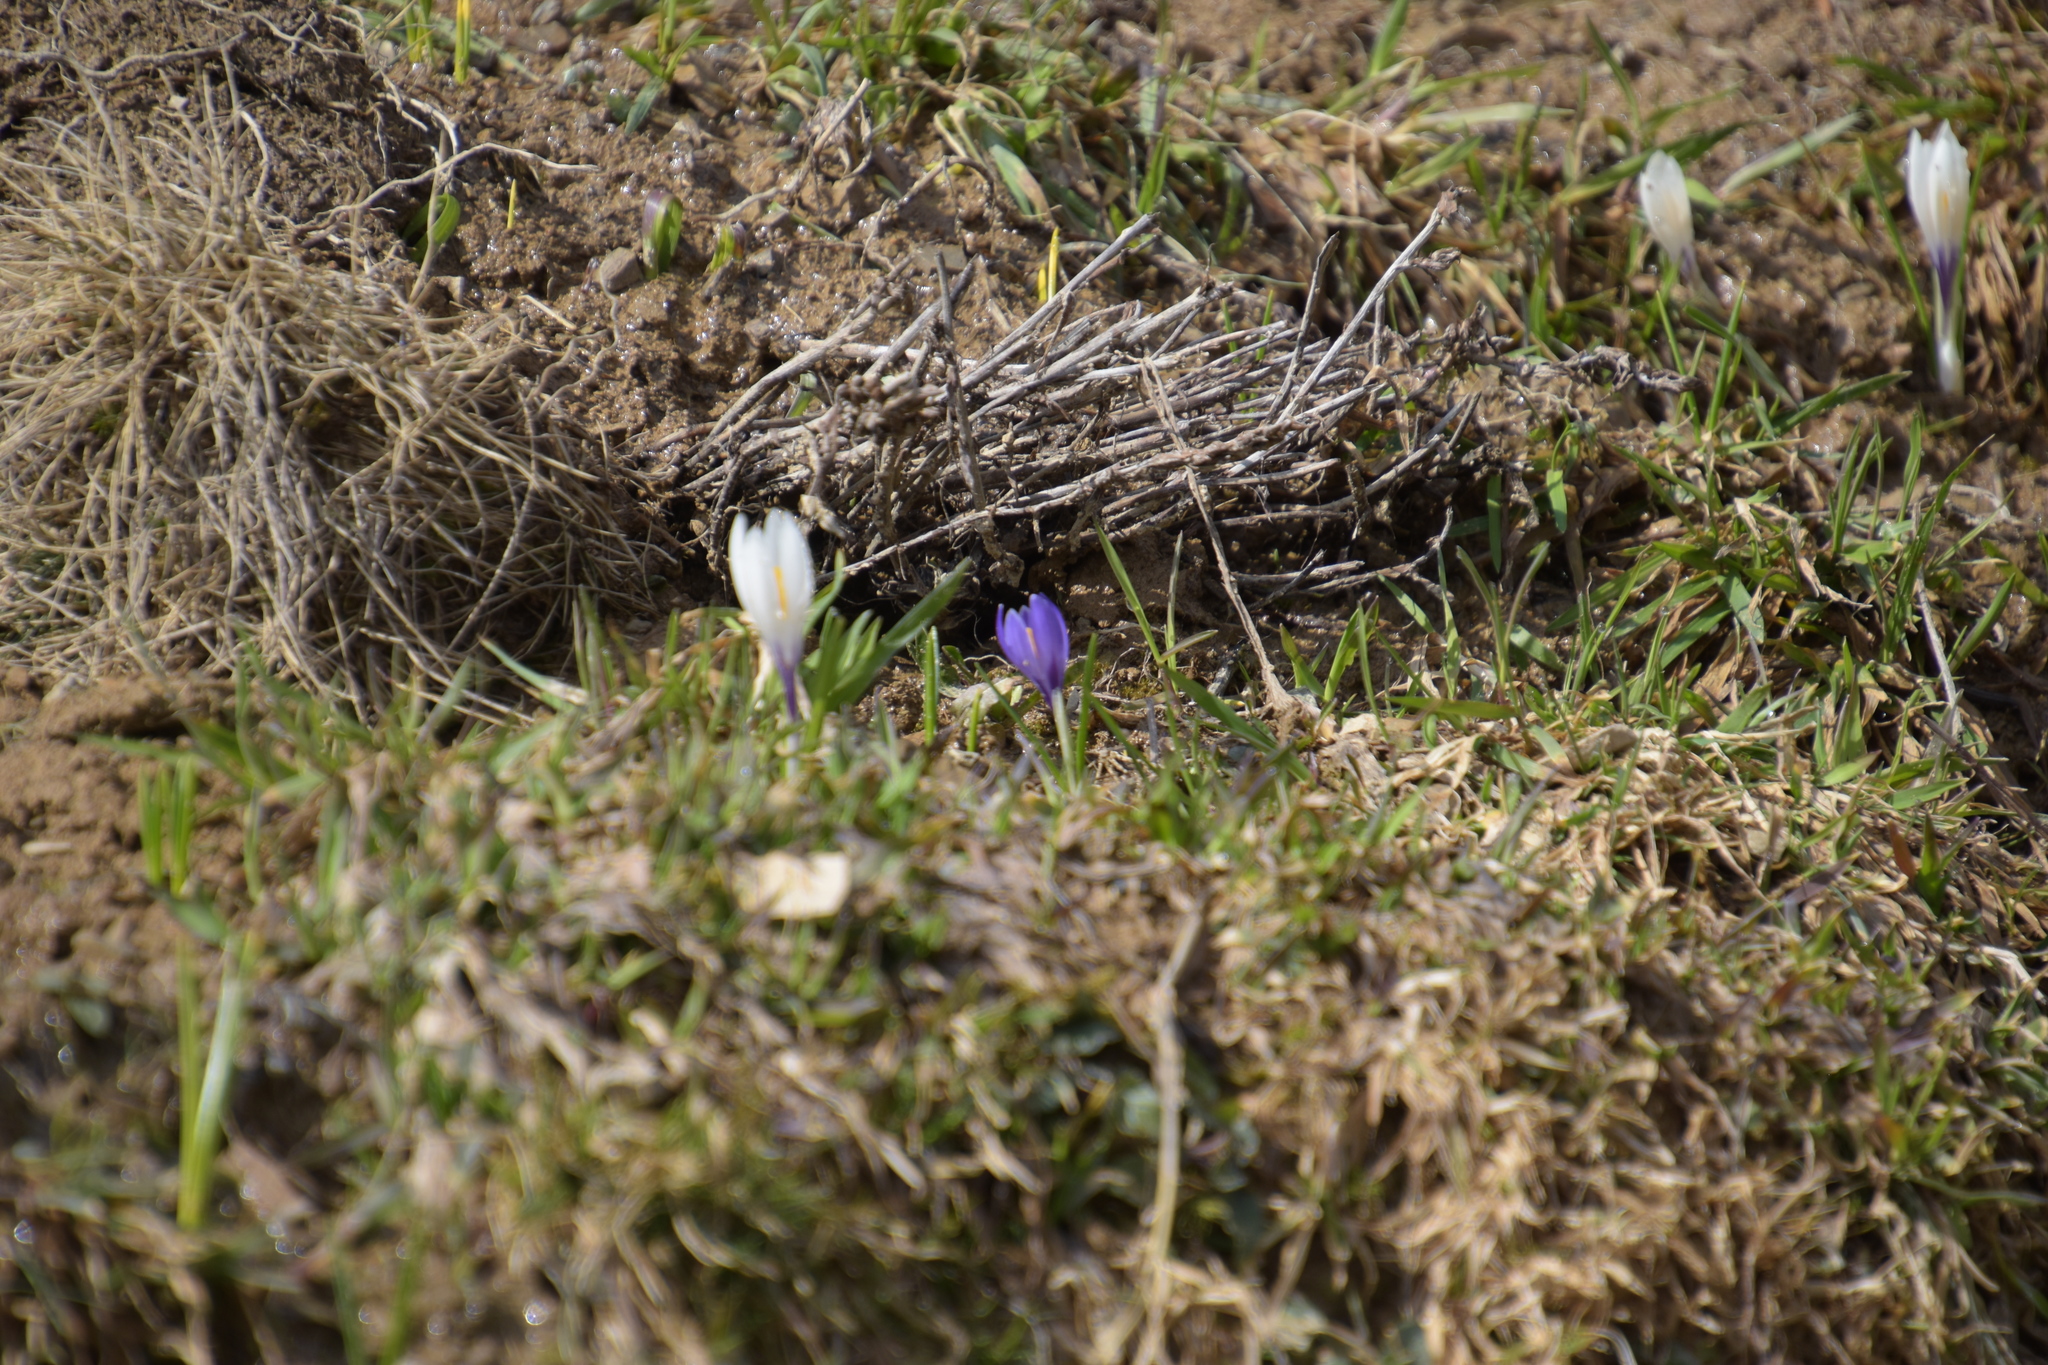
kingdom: Plantae
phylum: Tracheophyta
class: Liliopsida
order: Asparagales
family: Iridaceae
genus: Crocus
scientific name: Crocus vernus
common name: Spring crocus
